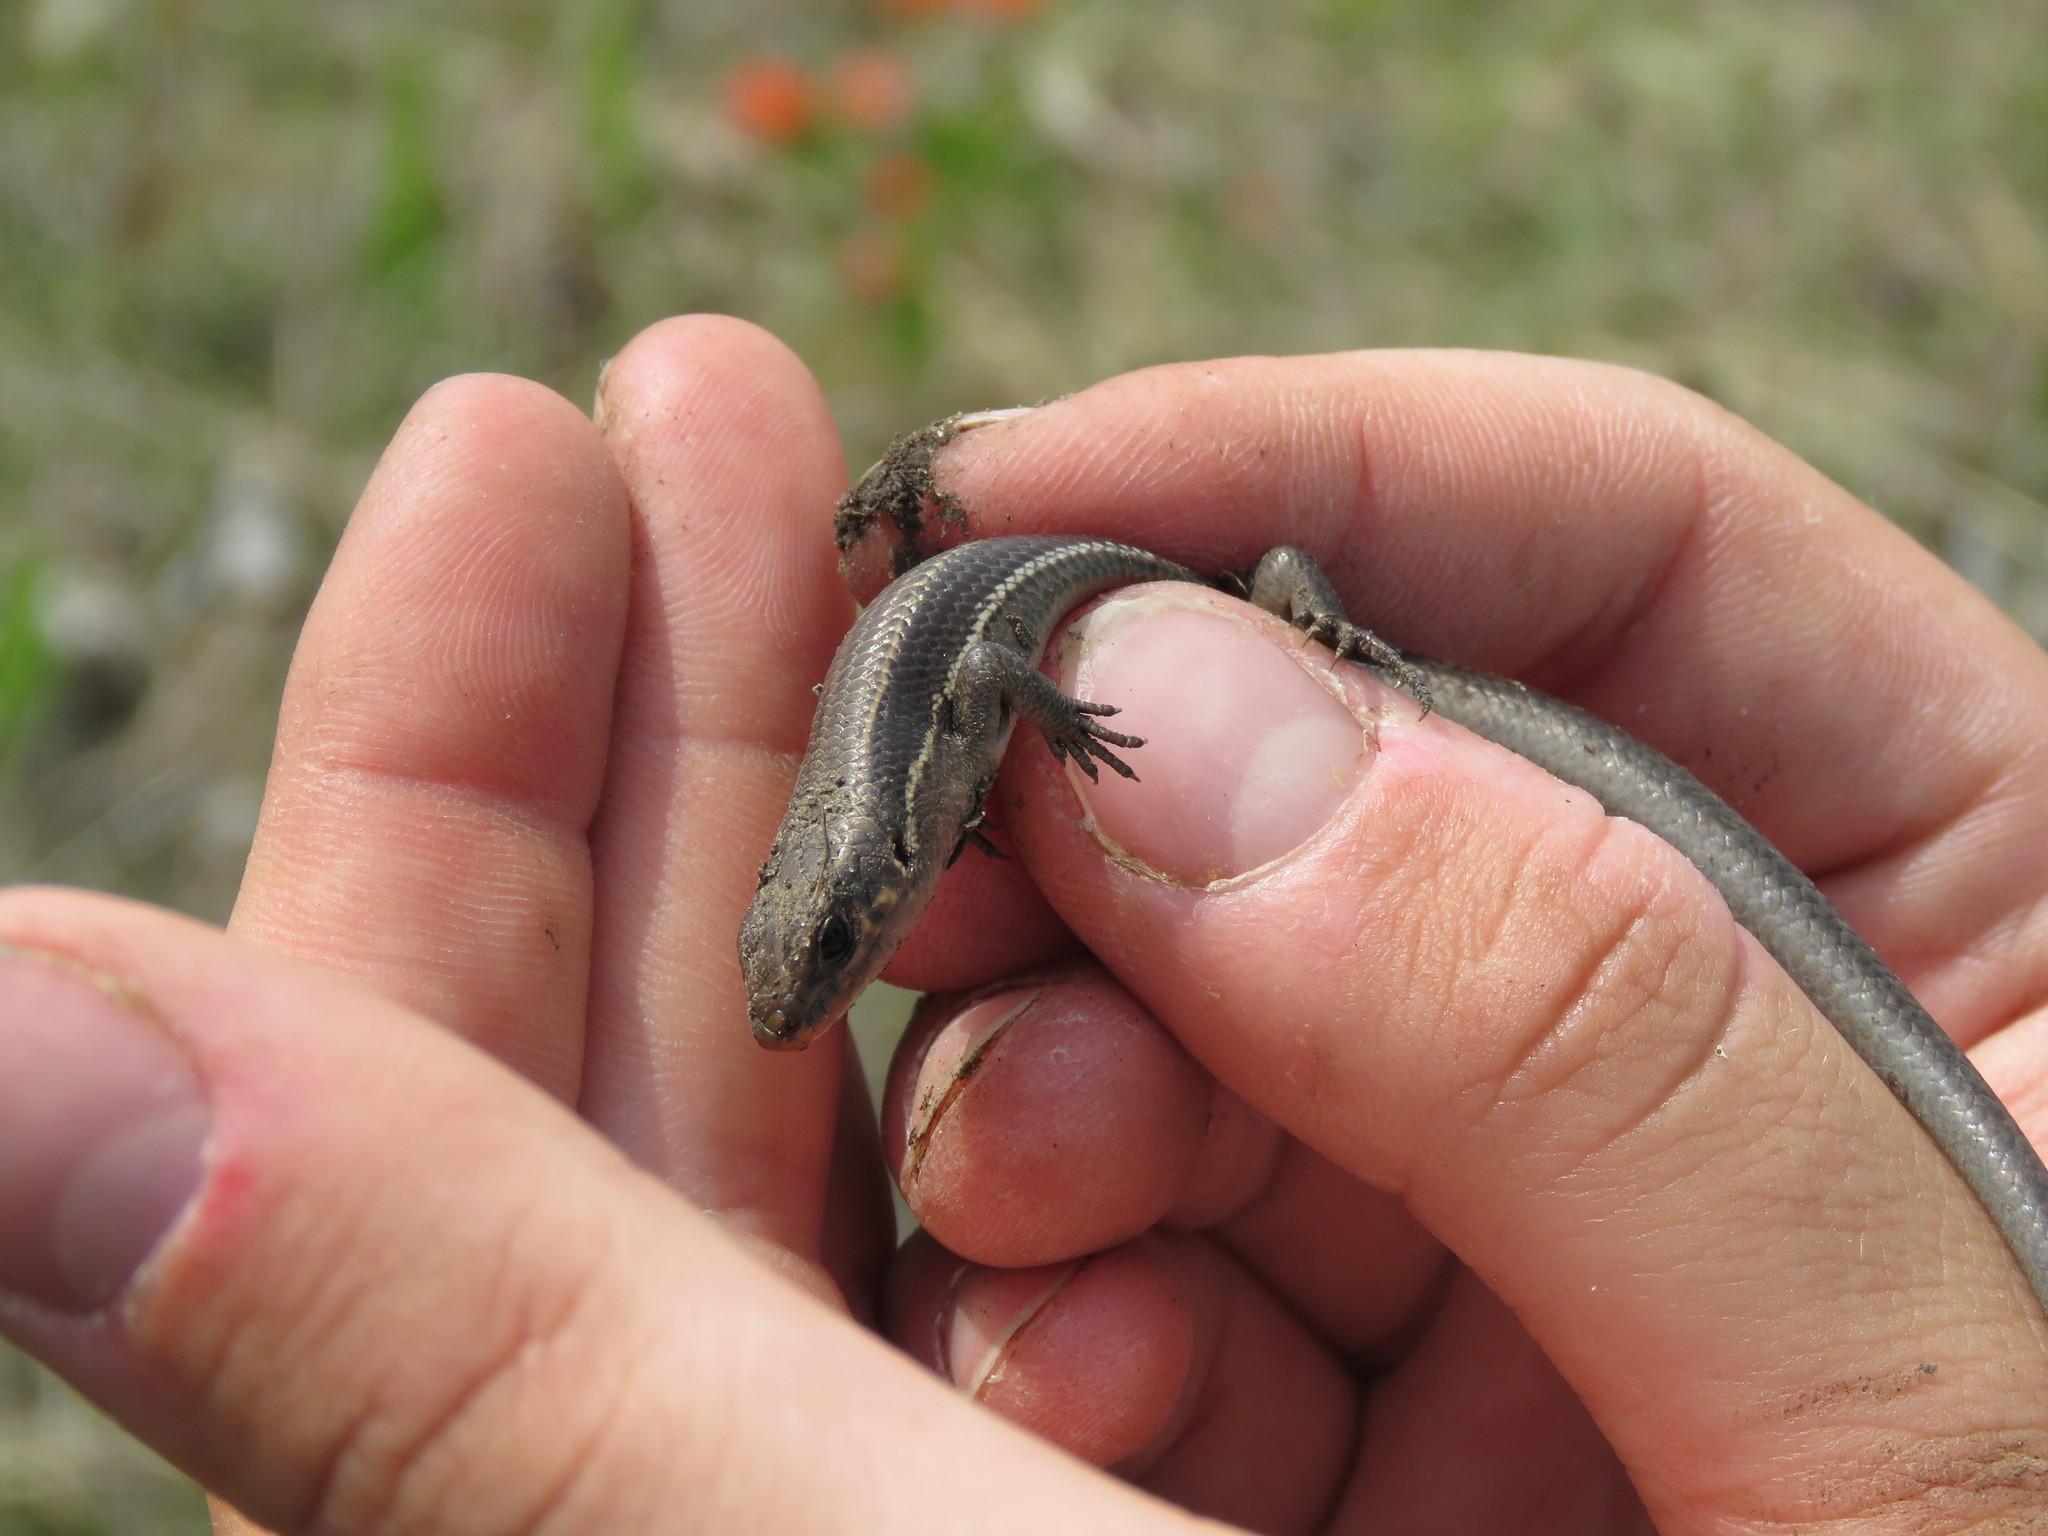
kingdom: Animalia
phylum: Chordata
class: Squamata
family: Scincidae
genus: Plestiodon
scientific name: Plestiodon anthracinus
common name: Coal skink
